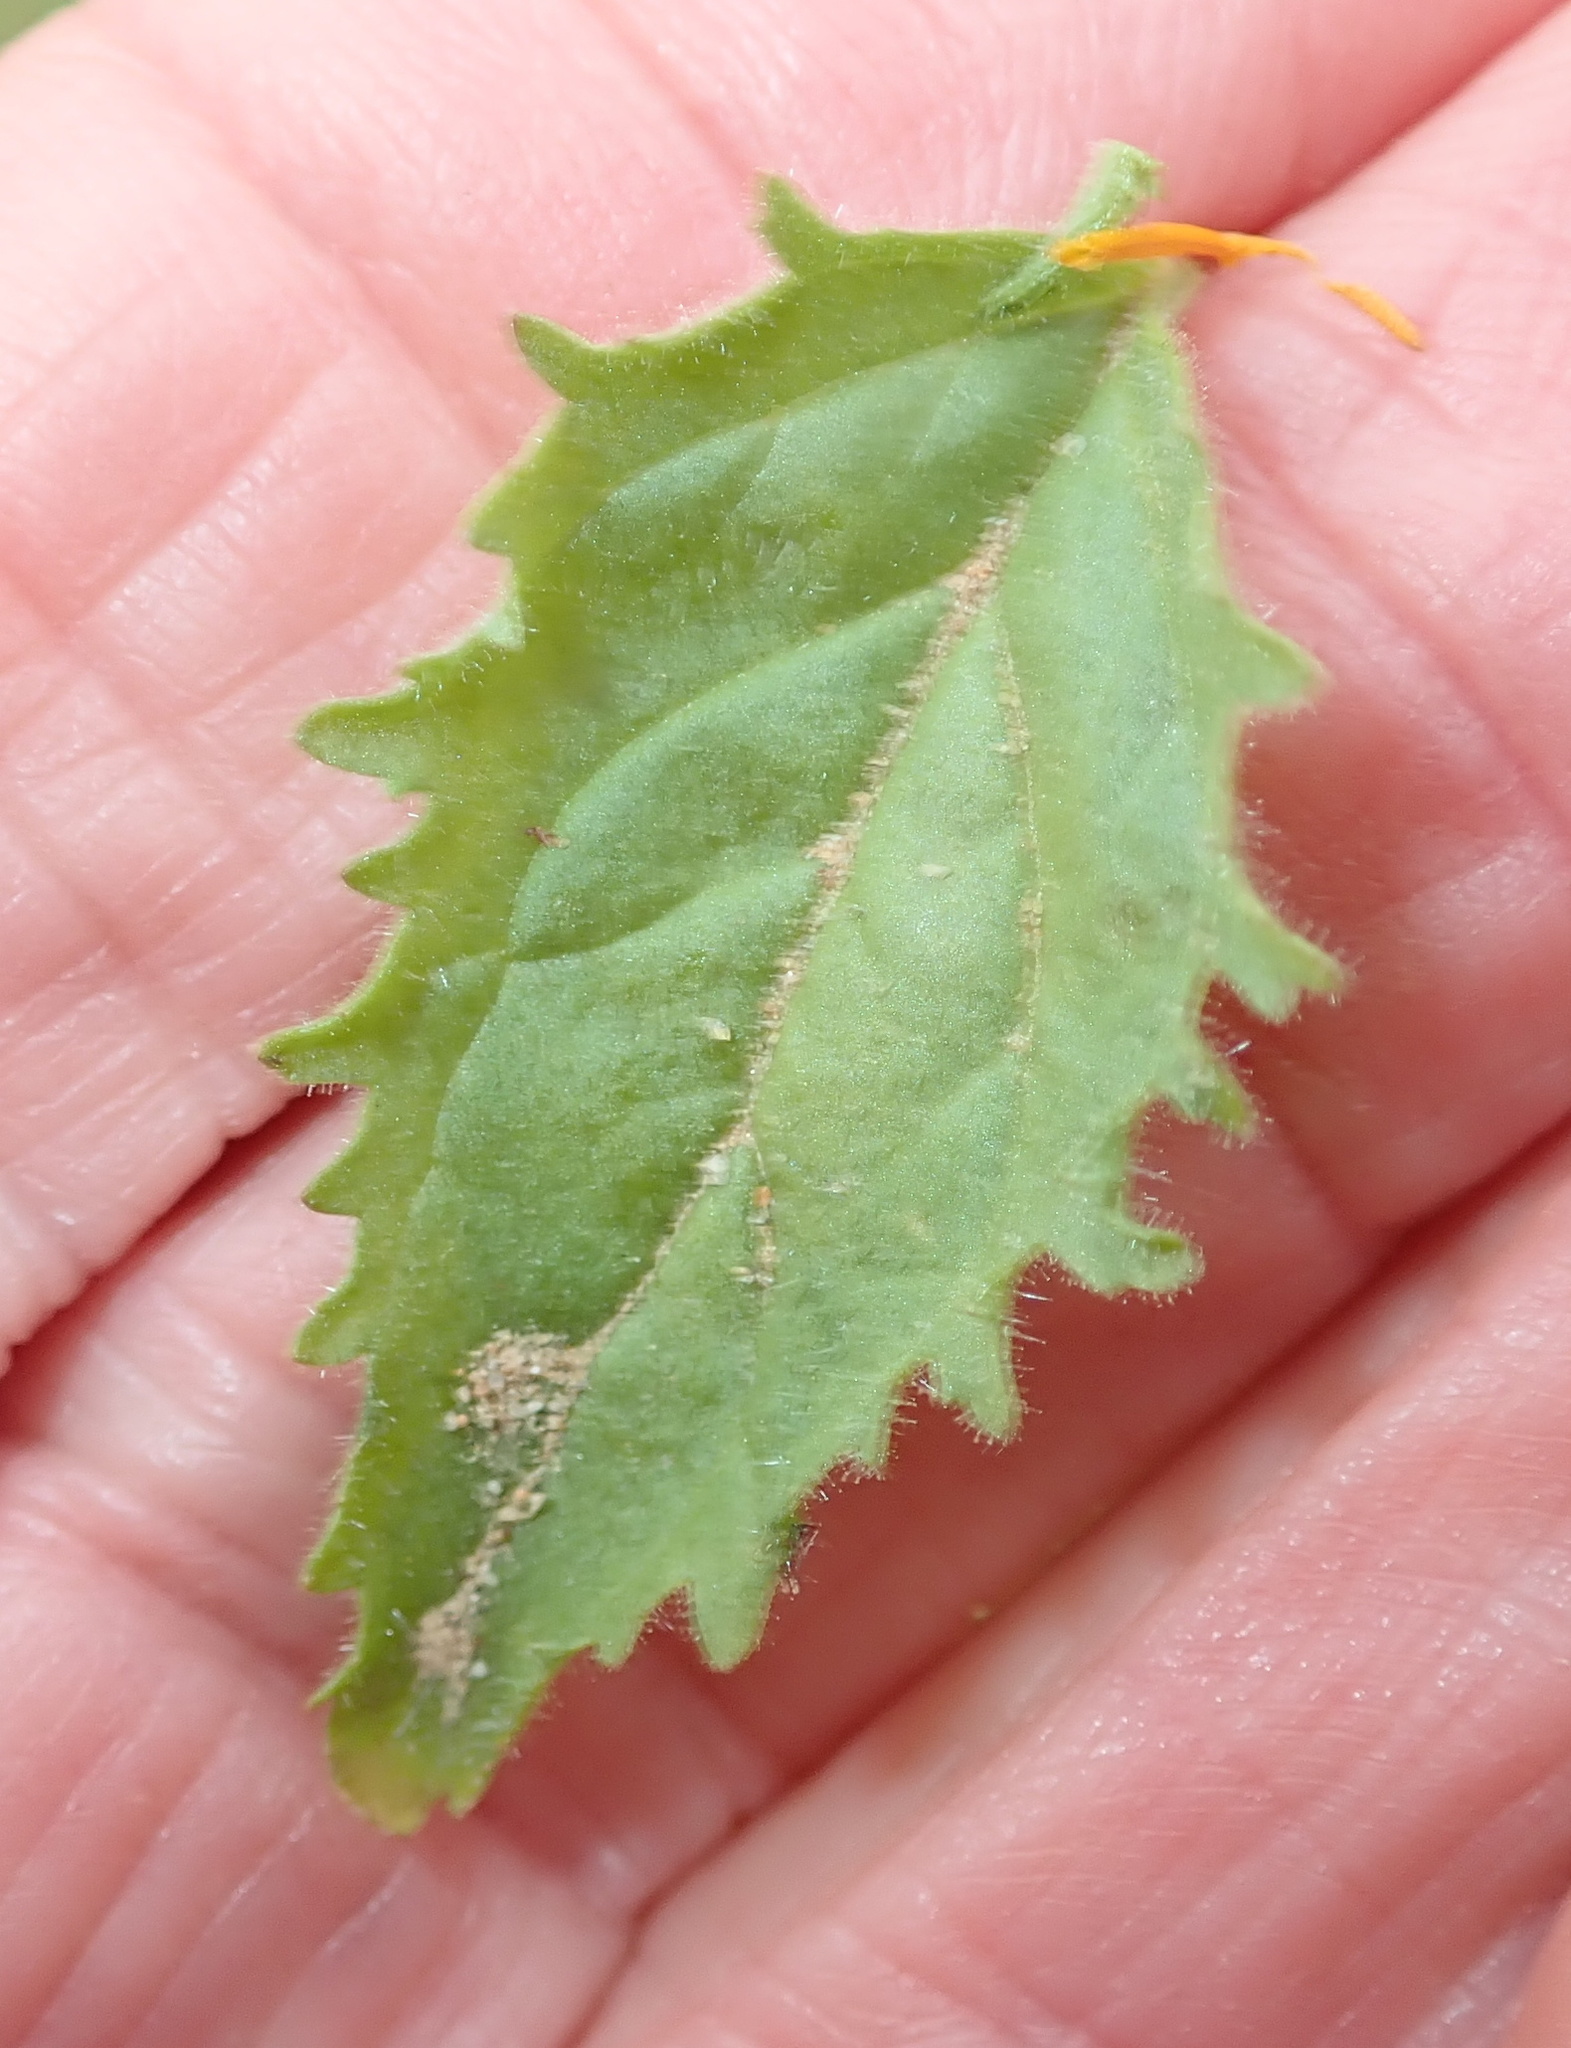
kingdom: Plantae
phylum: Tracheophyta
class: Magnoliopsida
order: Lamiales
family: Scrophulariaceae
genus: Jamesbrittenia
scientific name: Jamesbrittenia racemosa
